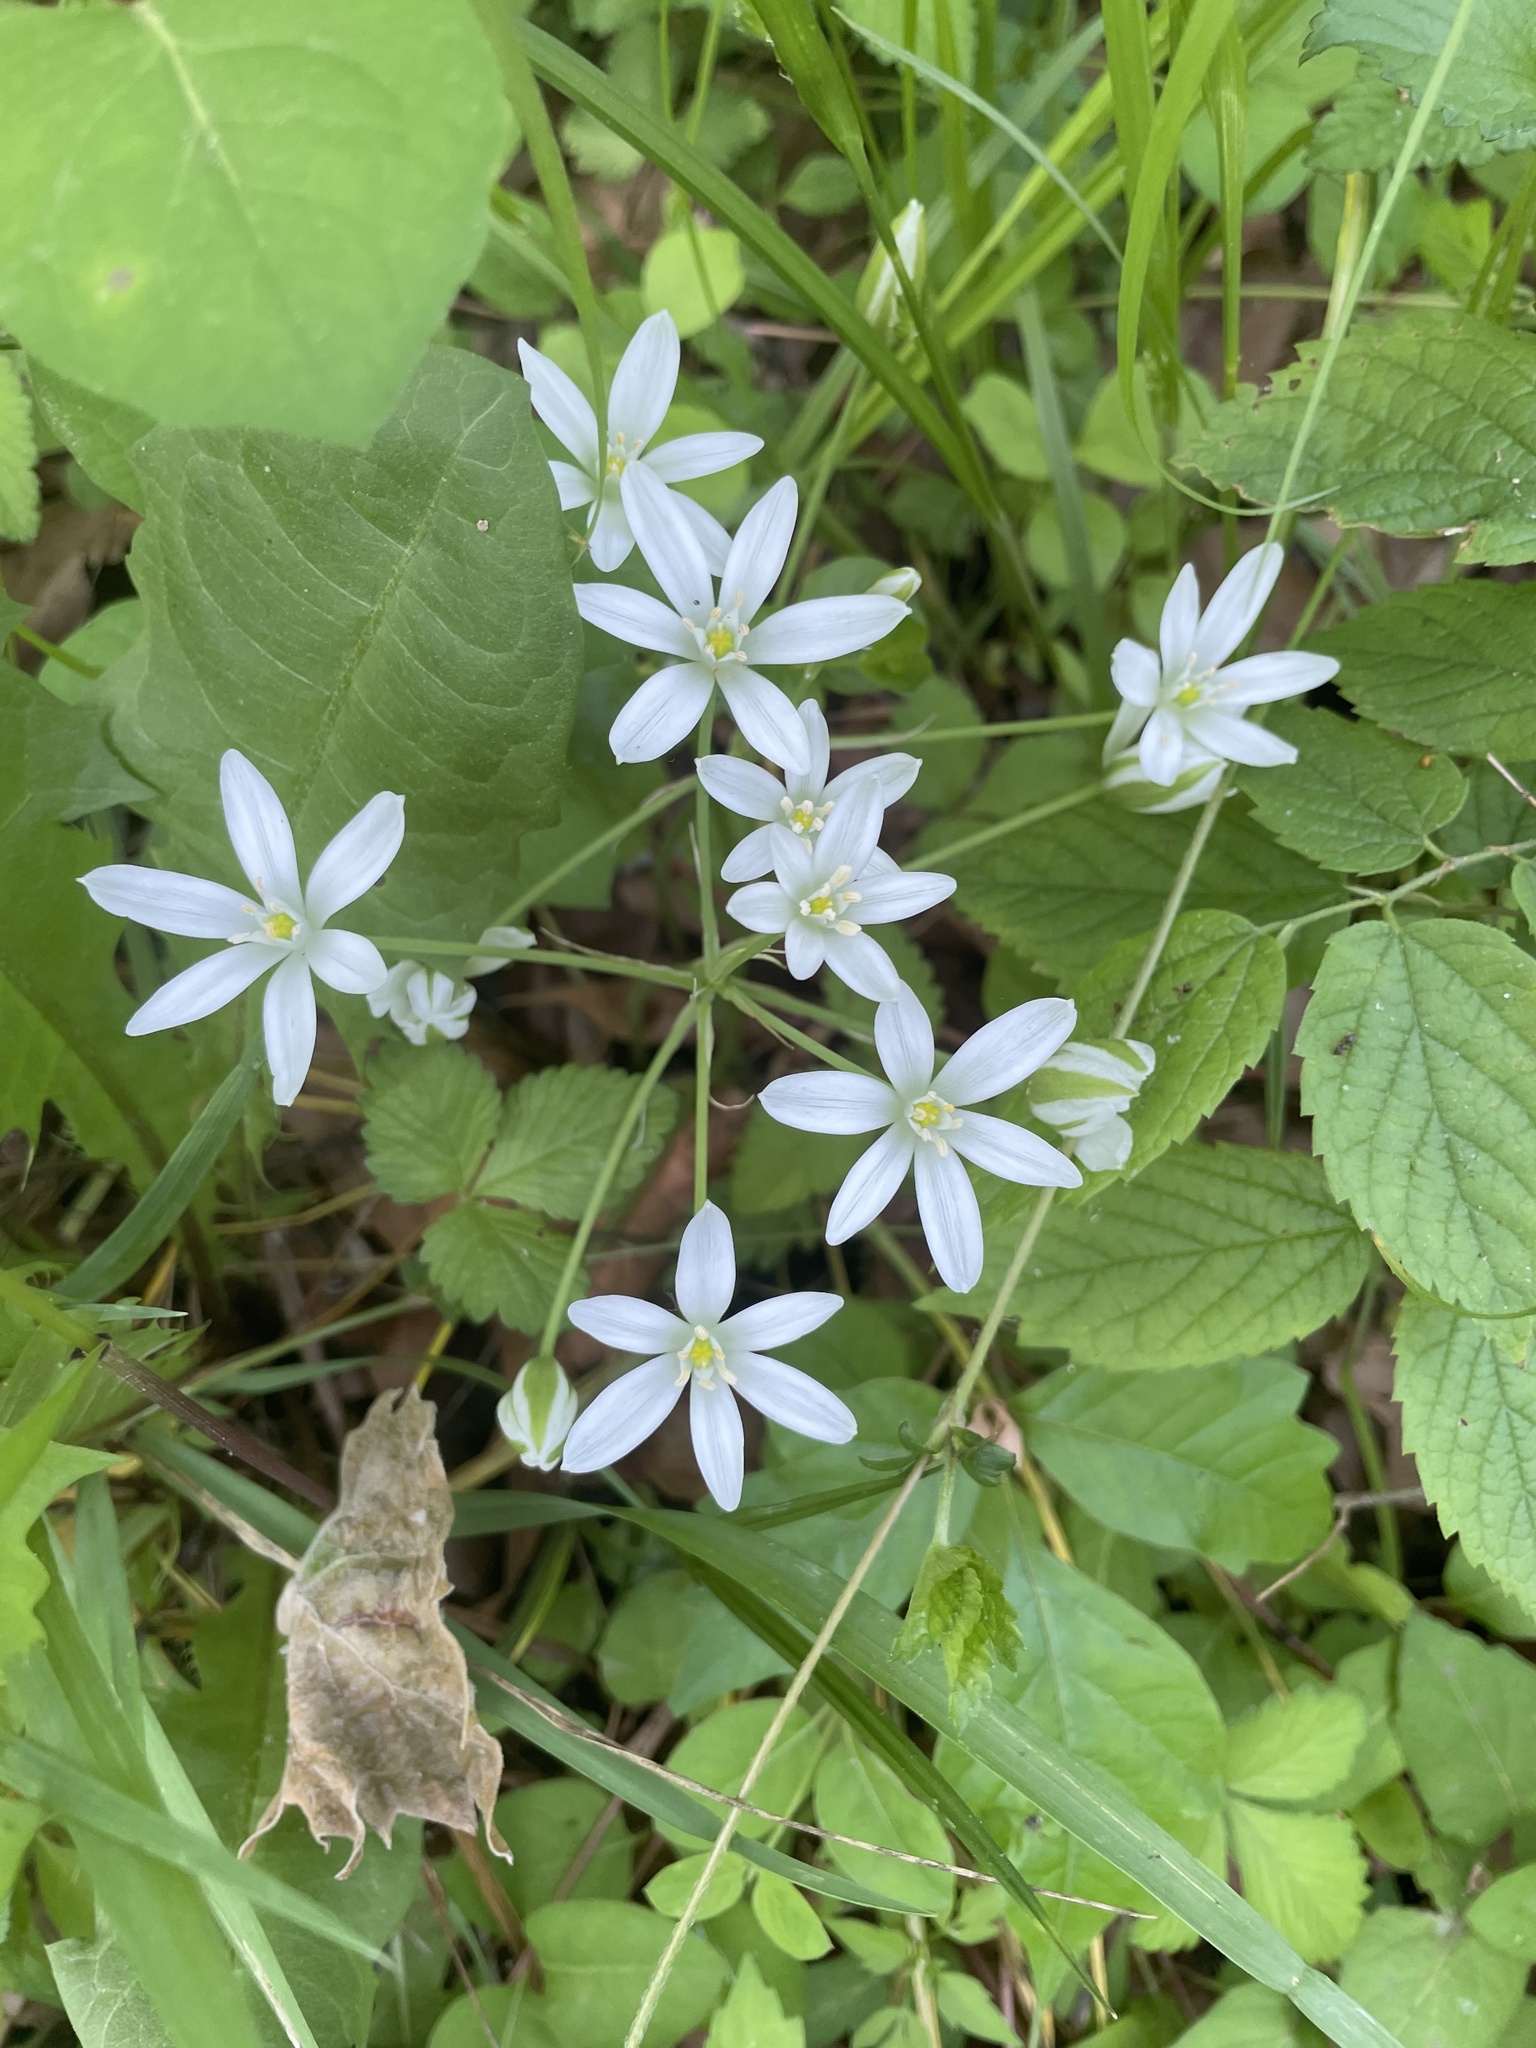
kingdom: Plantae
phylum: Tracheophyta
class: Liliopsida
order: Asparagales
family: Asparagaceae
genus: Ornithogalum
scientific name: Ornithogalum umbellatum
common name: Garden star-of-bethlehem
